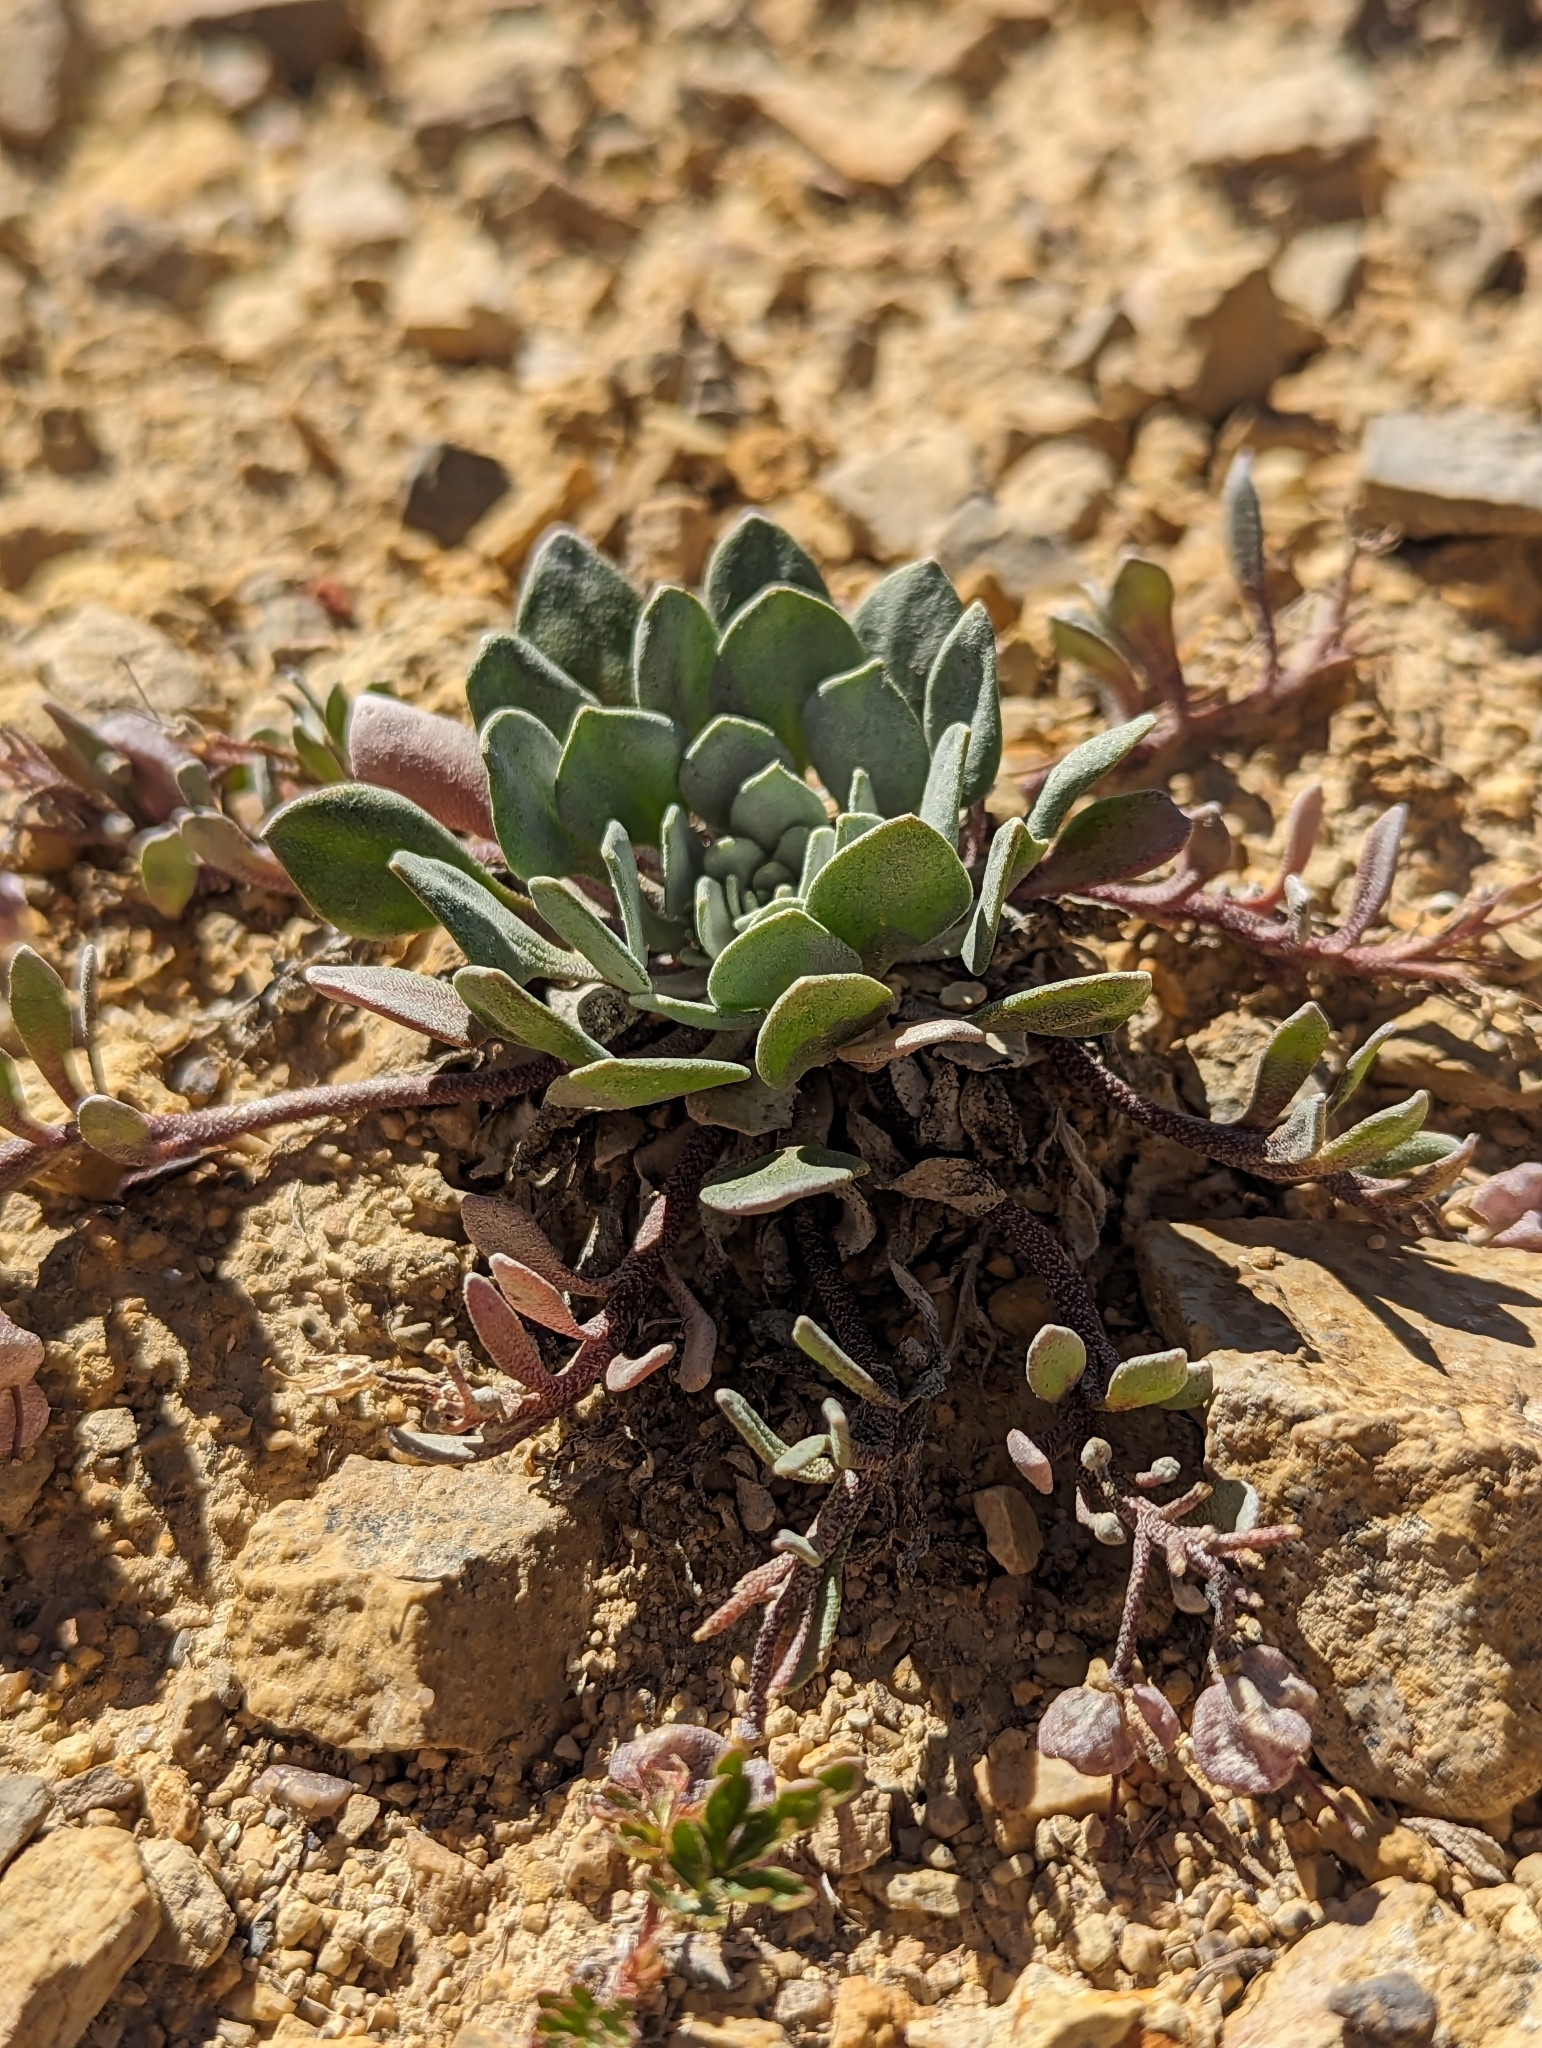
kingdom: Plantae
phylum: Tracheophyta
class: Magnoliopsida
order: Brassicales
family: Brassicaceae
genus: Physaria
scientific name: Physaria alpina
